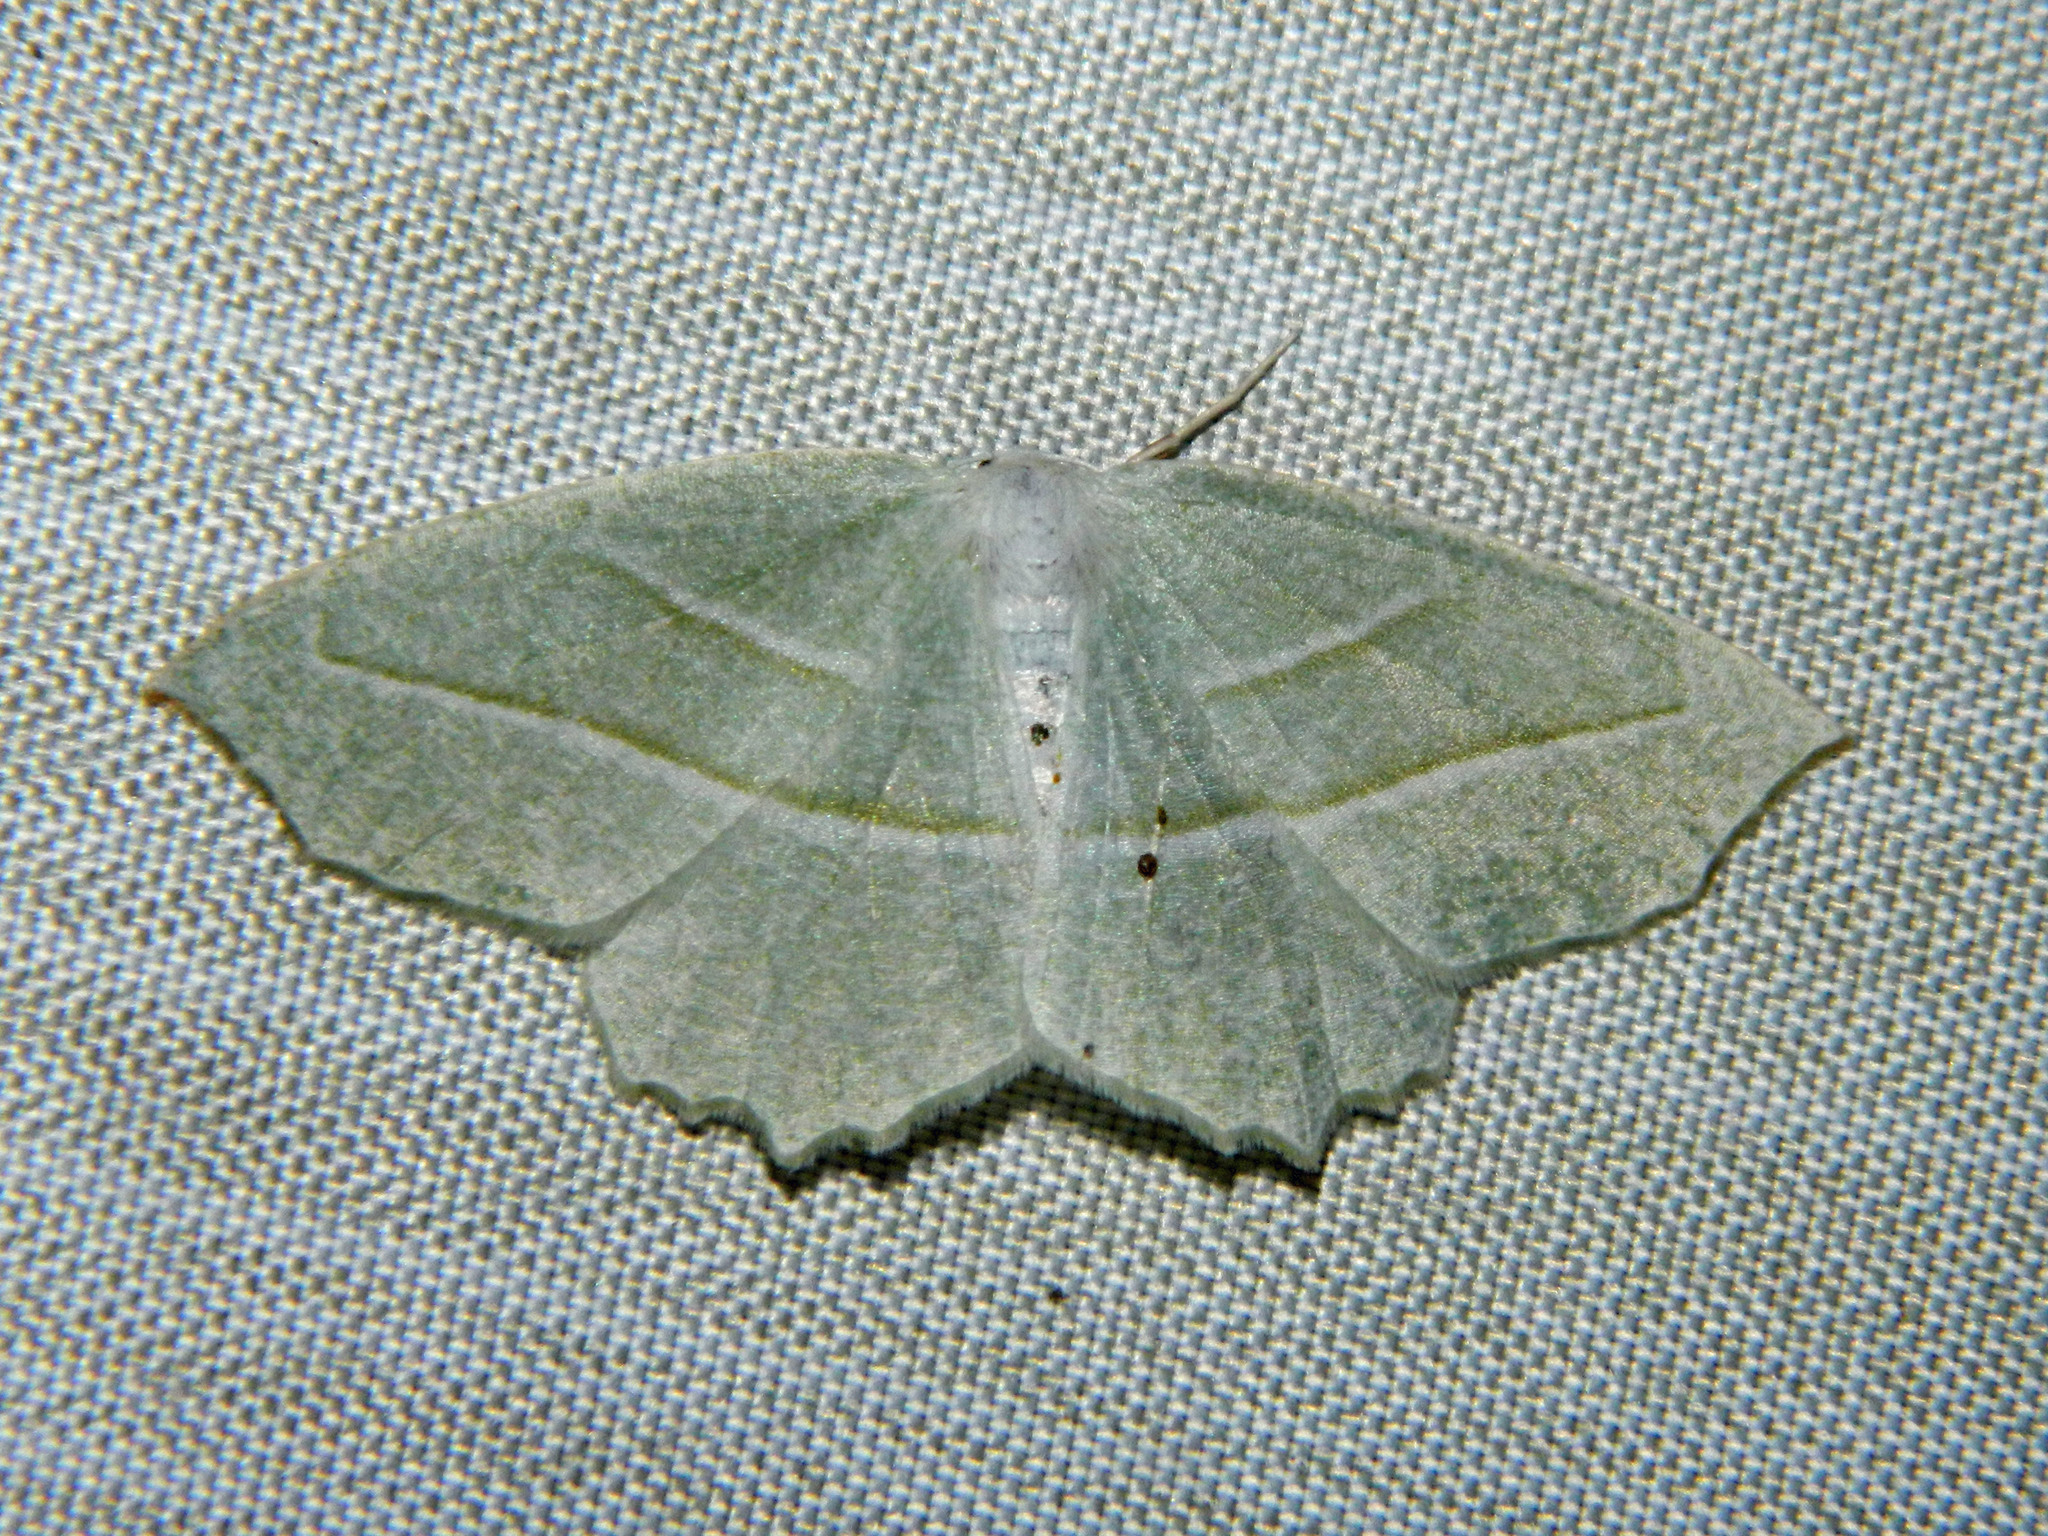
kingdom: Animalia
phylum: Arthropoda
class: Insecta
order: Lepidoptera
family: Geometridae
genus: Campaea
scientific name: Campaea perlata
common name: Fringed looper
